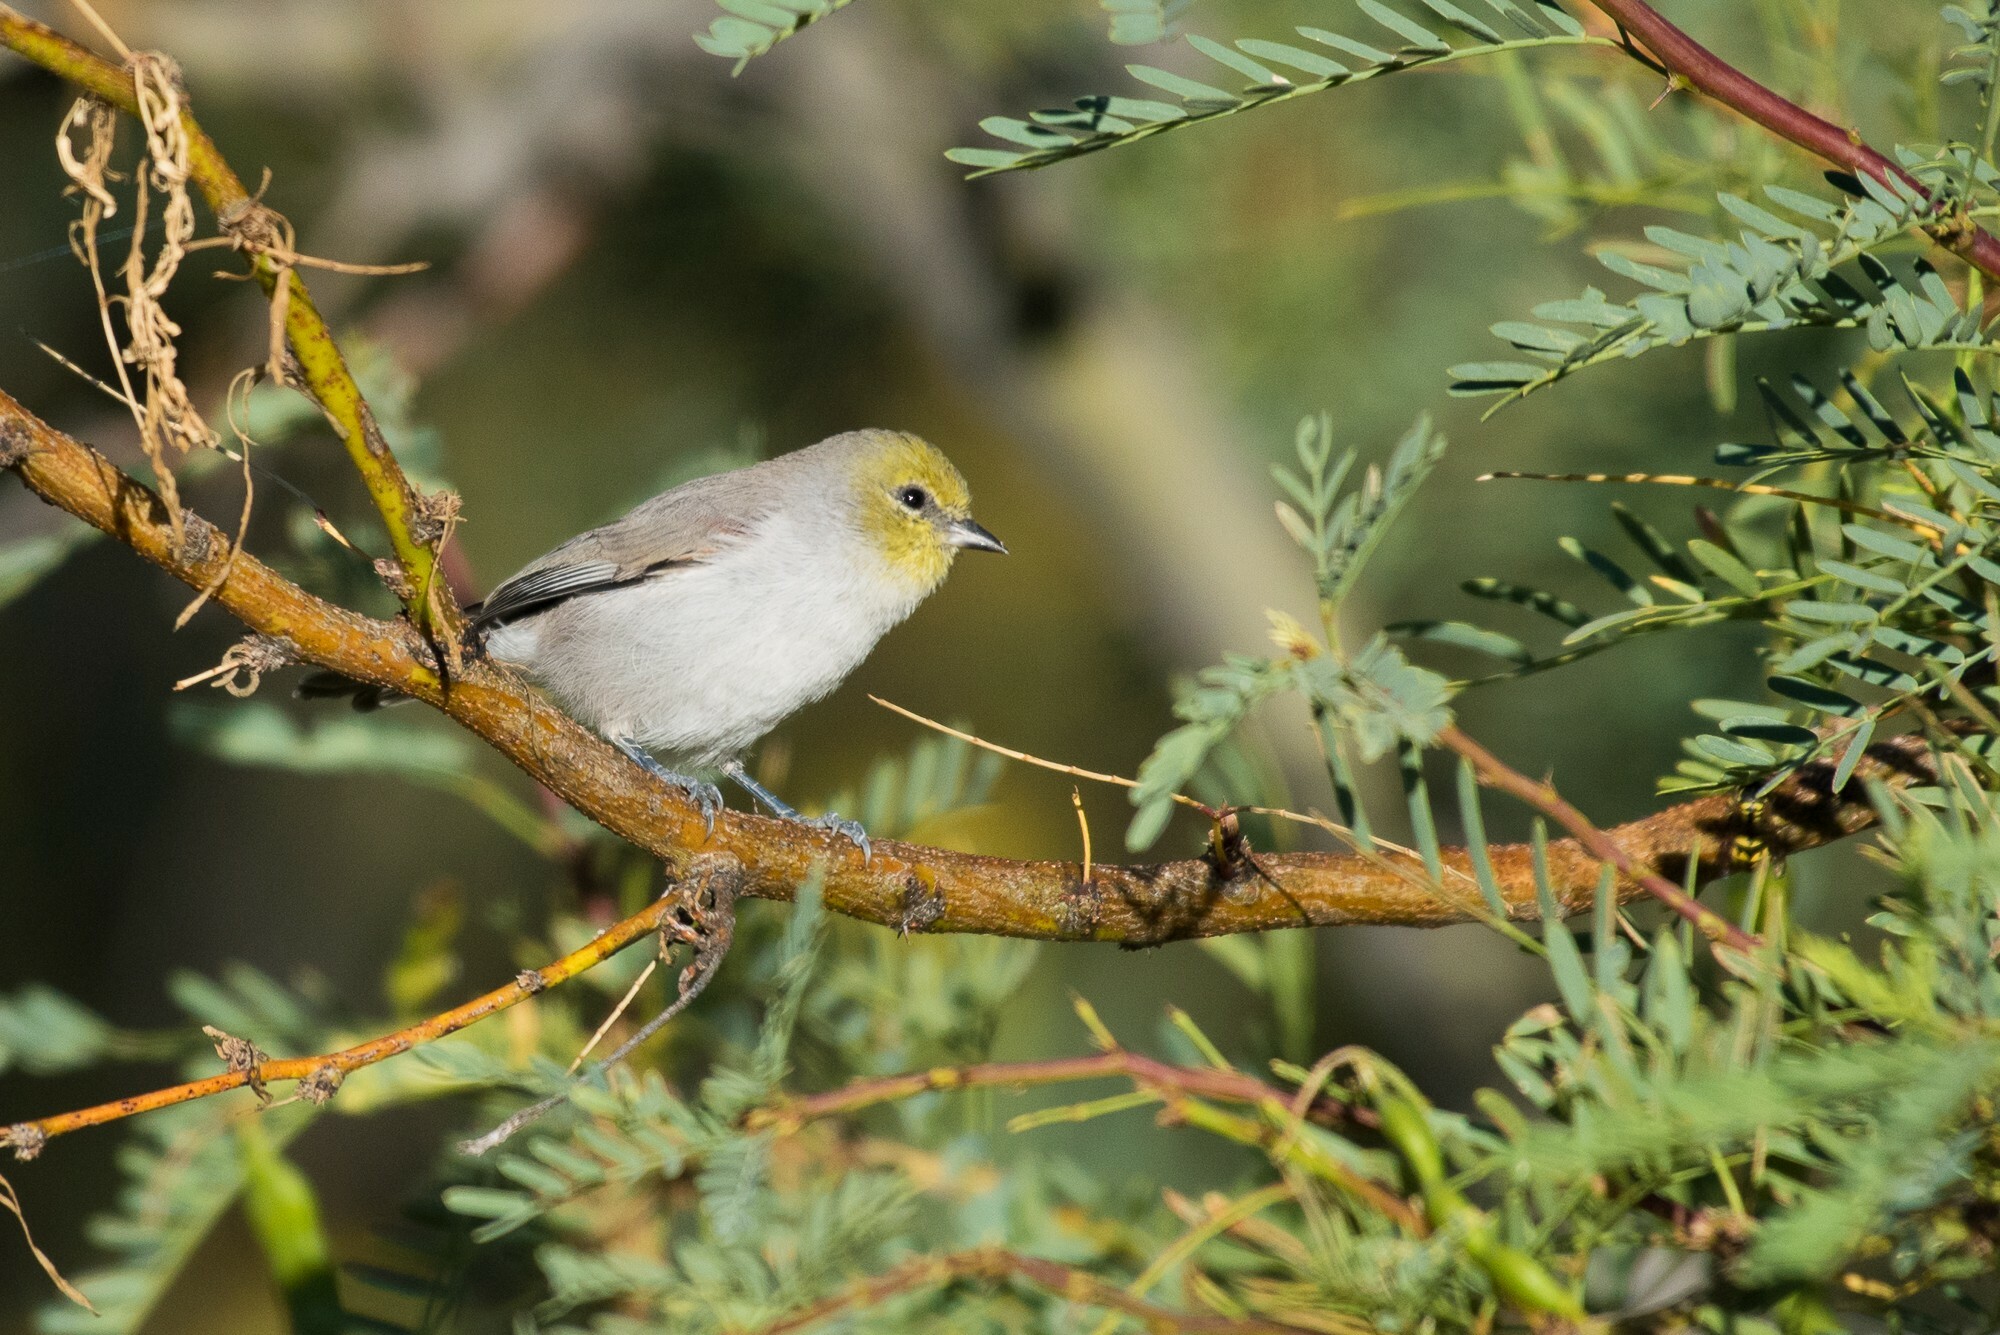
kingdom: Animalia
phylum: Chordata
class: Aves
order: Passeriformes
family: Remizidae
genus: Auriparus
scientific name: Auriparus flaviceps
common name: Verdin
